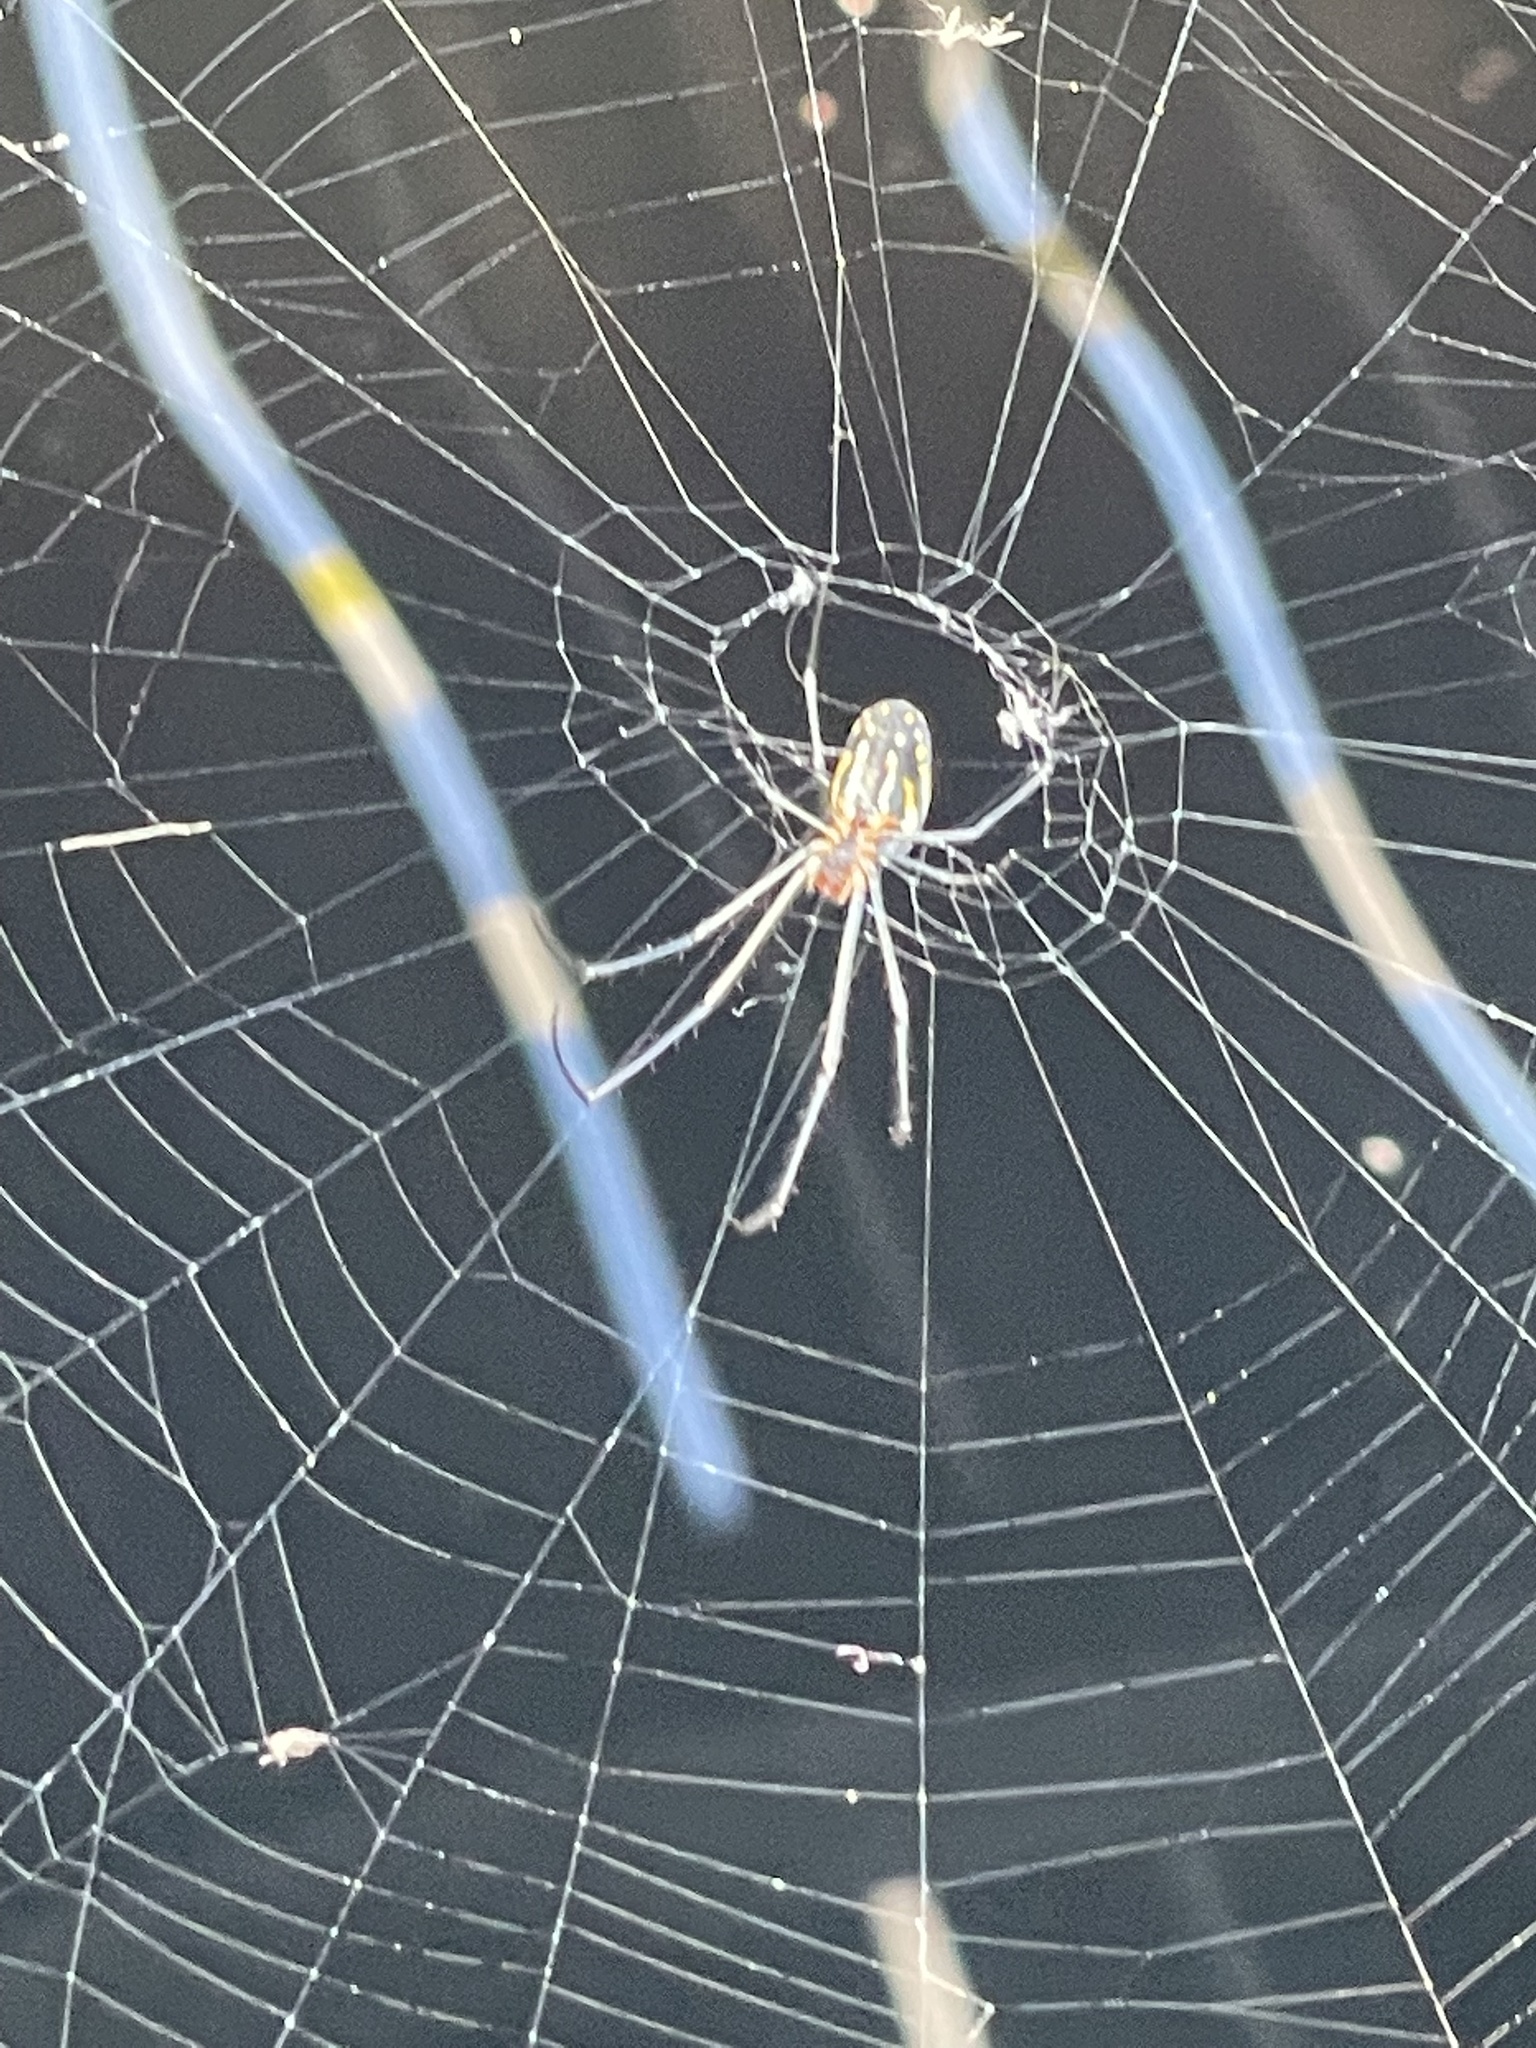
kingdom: Animalia
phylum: Arthropoda
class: Arachnida
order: Araneae
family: Tetragnathidae
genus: Leucauge
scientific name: Leucauge argyra
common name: Longjawed orb weavers
